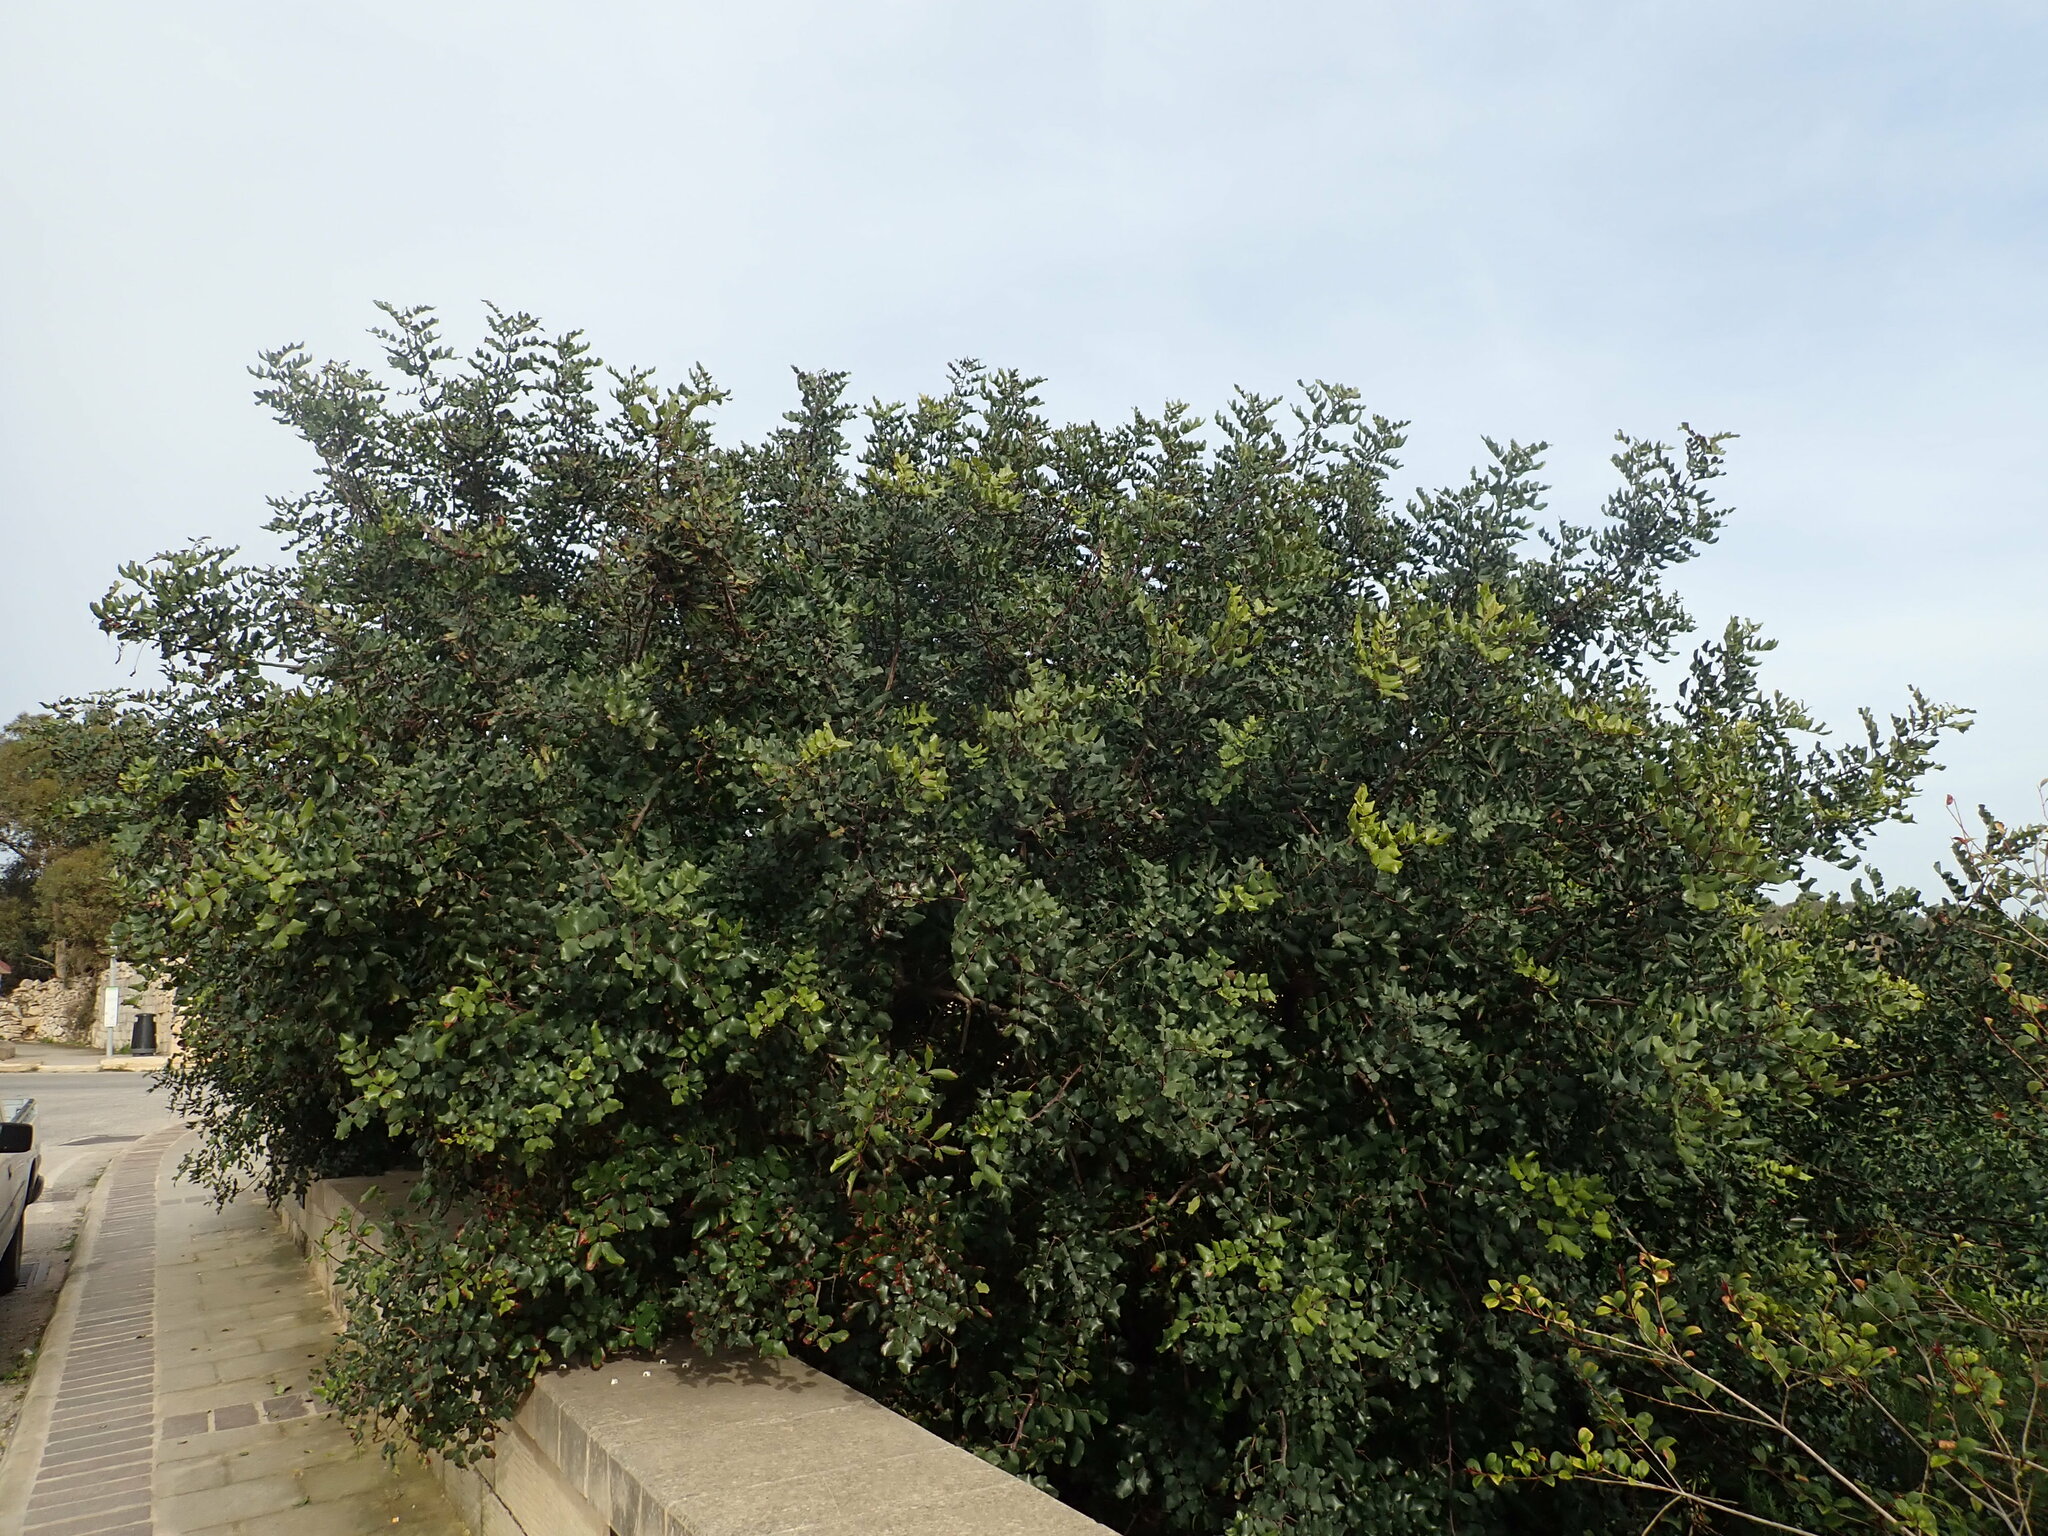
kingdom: Plantae
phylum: Tracheophyta
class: Magnoliopsida
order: Fabales
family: Fabaceae
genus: Ceratonia
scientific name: Ceratonia siliqua
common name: Carob
